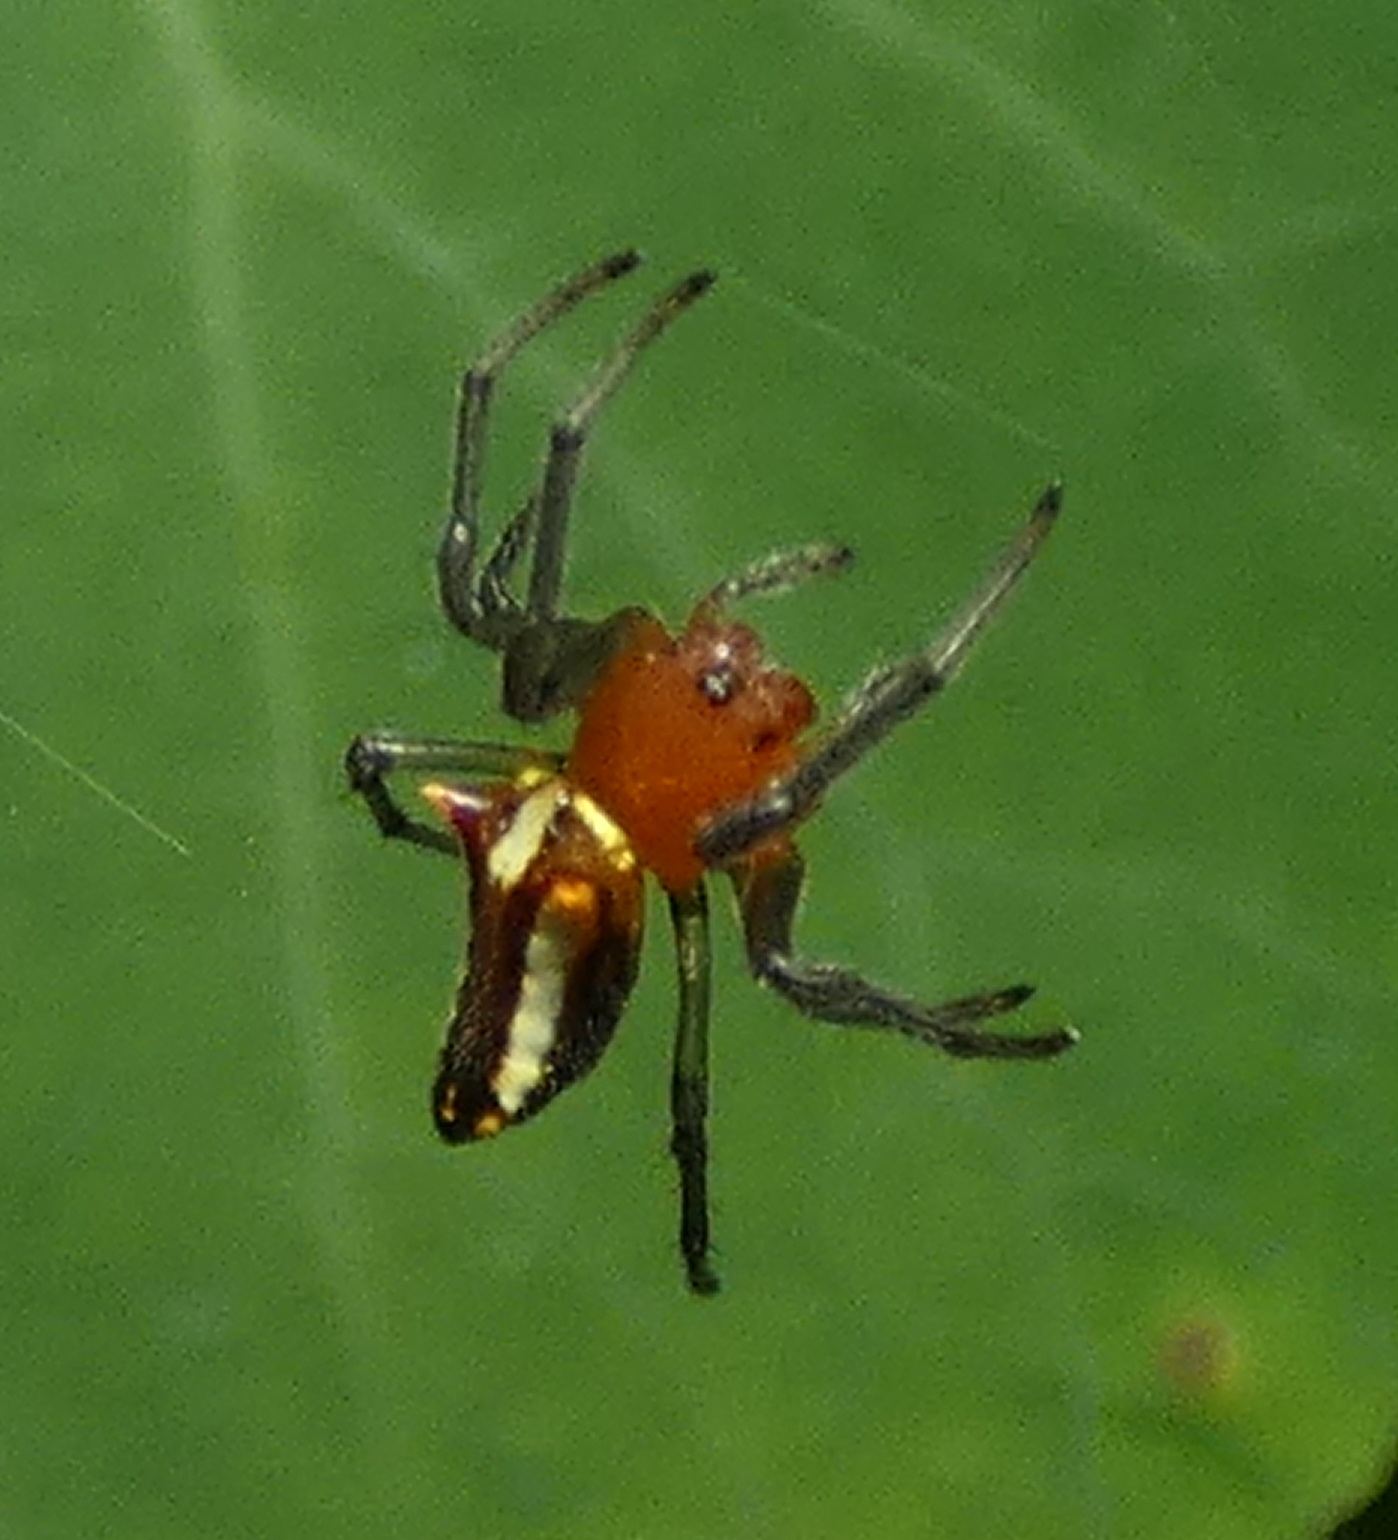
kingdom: Animalia
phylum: Arthropoda
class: Arachnida
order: Araneae
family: Araneidae
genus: Alpaida
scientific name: Alpaida bicornuta
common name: Orb weavers
